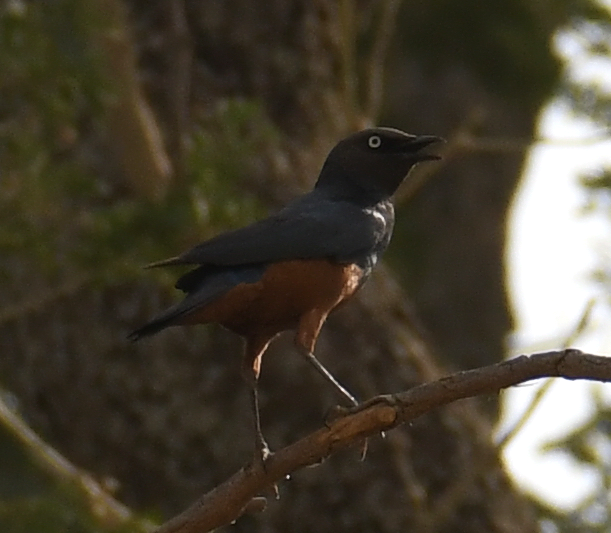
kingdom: Animalia
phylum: Chordata
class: Aves
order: Passeriformes
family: Sturnidae
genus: Lamprotornis
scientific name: Lamprotornis pulcher
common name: Chestnut-bellied starling
